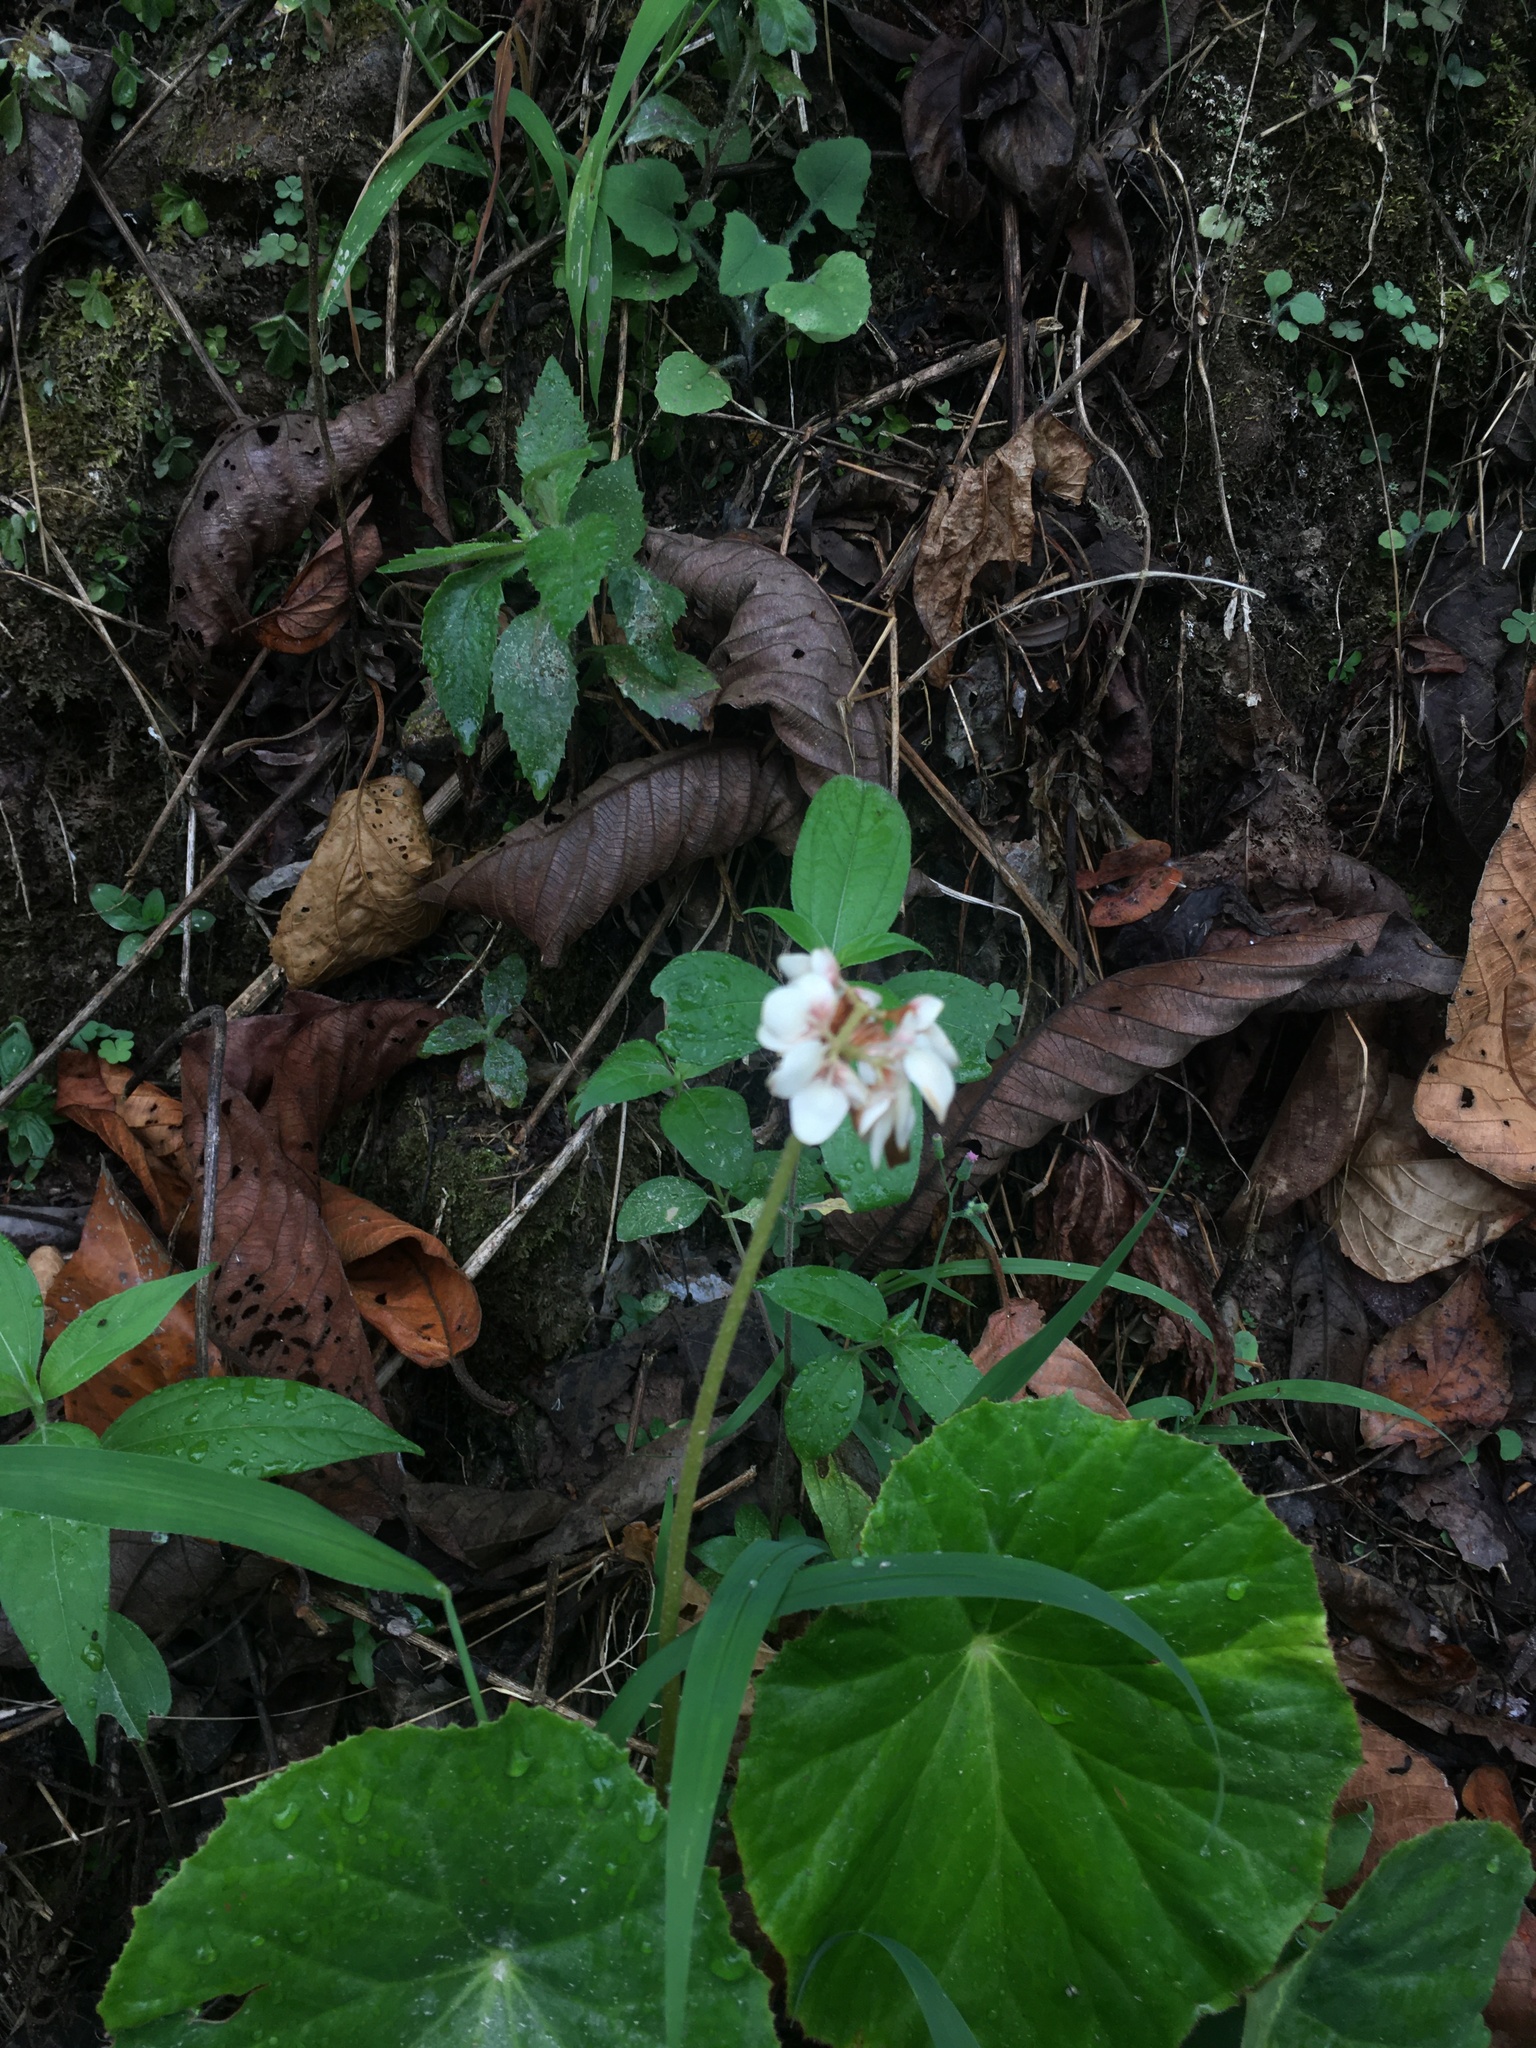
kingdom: Plantae
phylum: Tracheophyta
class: Magnoliopsida
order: Cucurbitales
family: Begoniaceae
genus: Begonia
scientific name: Begonia nelumbiifolia
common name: Lilypad begonia
